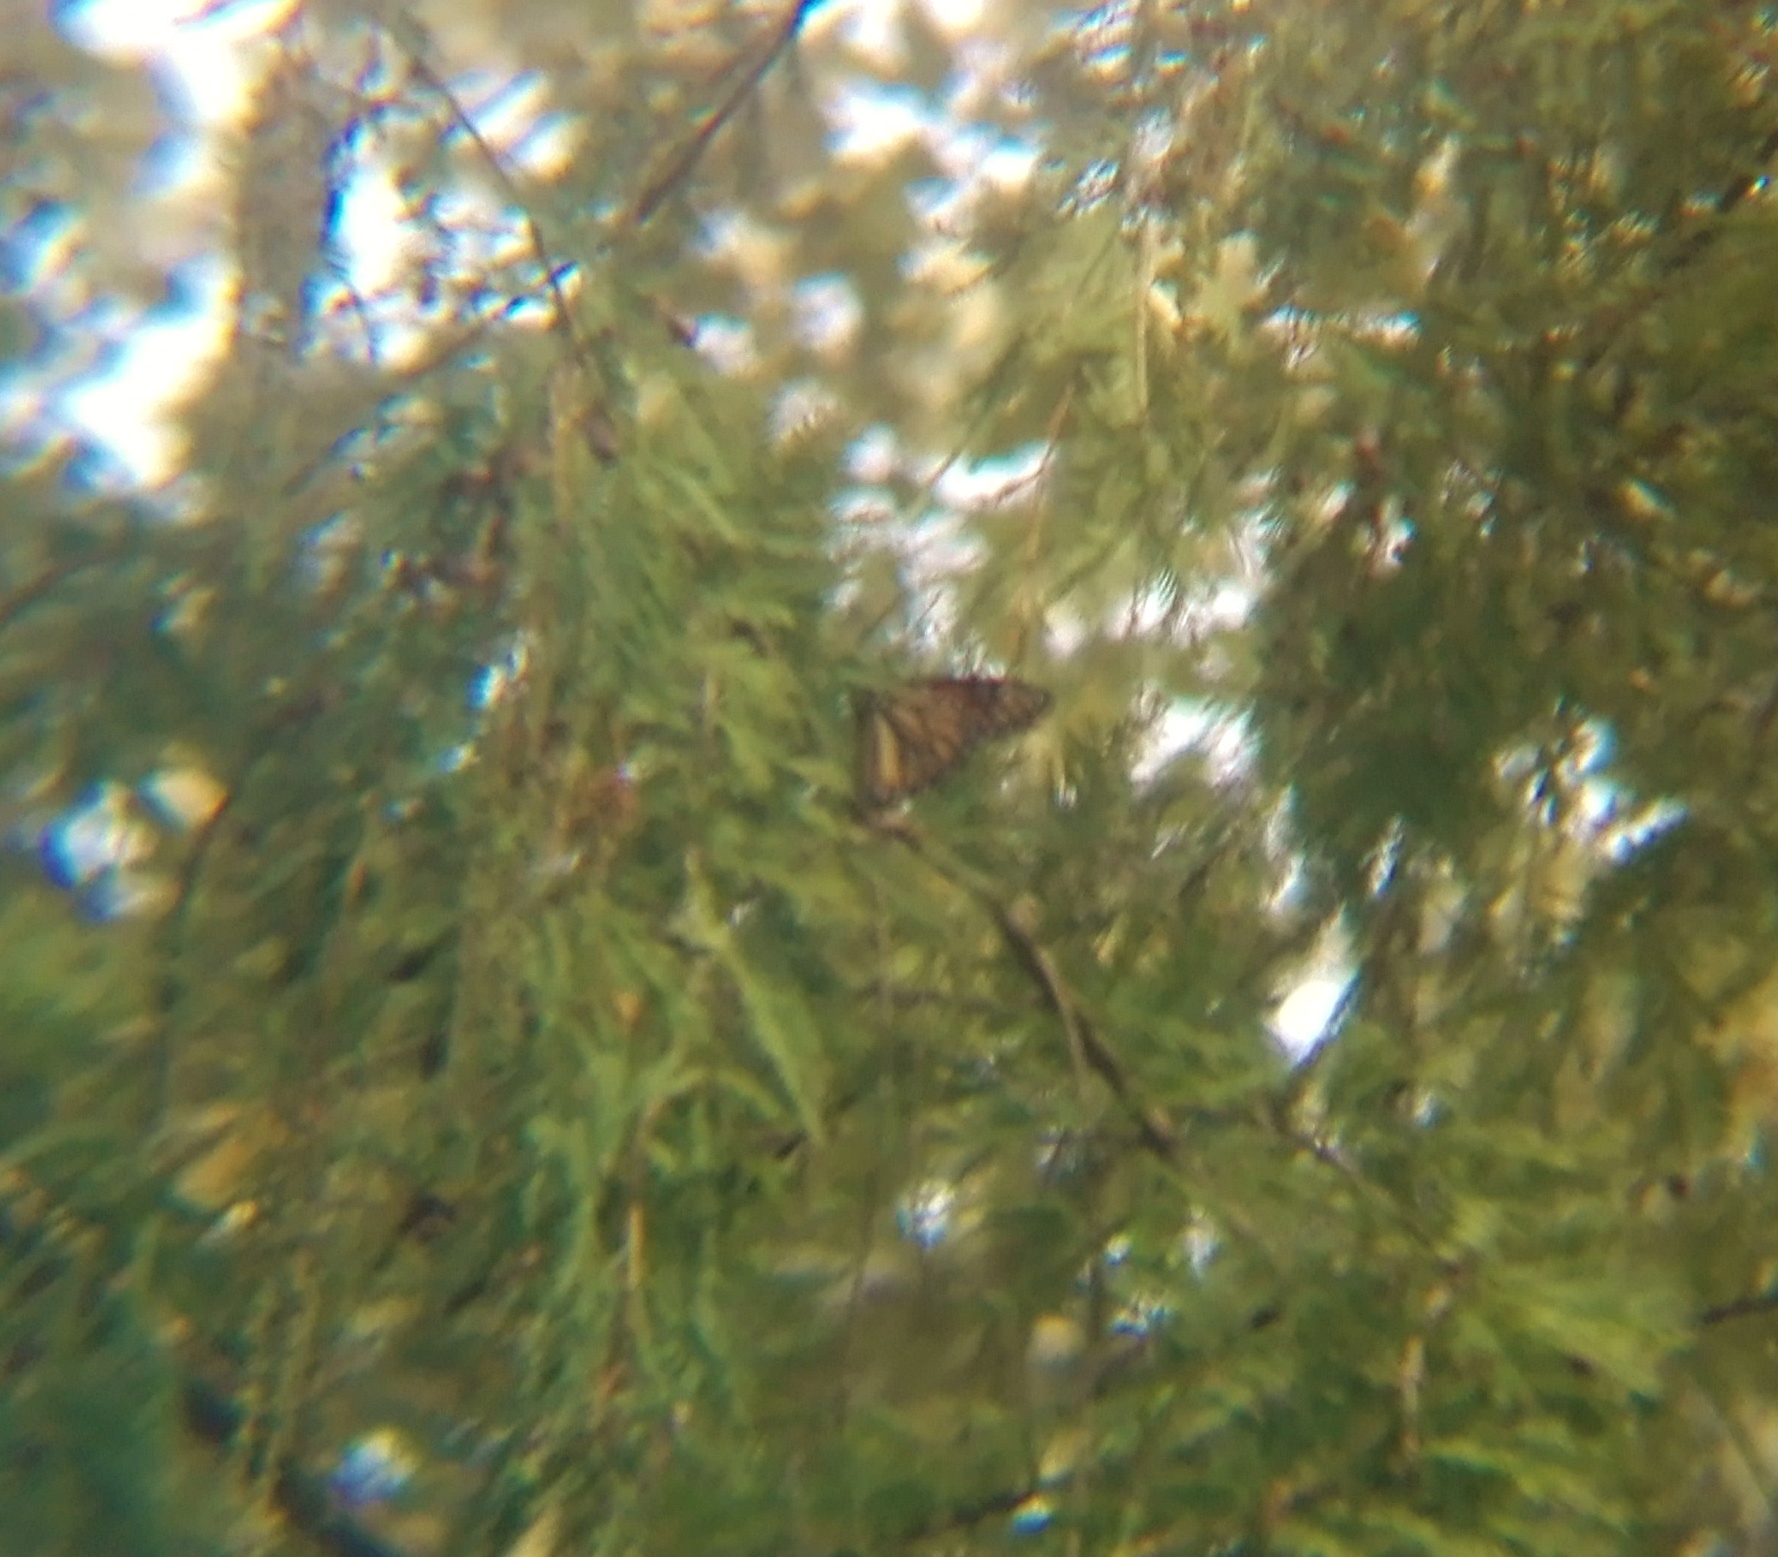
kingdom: Animalia
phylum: Arthropoda
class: Insecta
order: Lepidoptera
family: Nymphalidae
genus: Danaus
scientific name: Danaus plexippus
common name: Monarch
